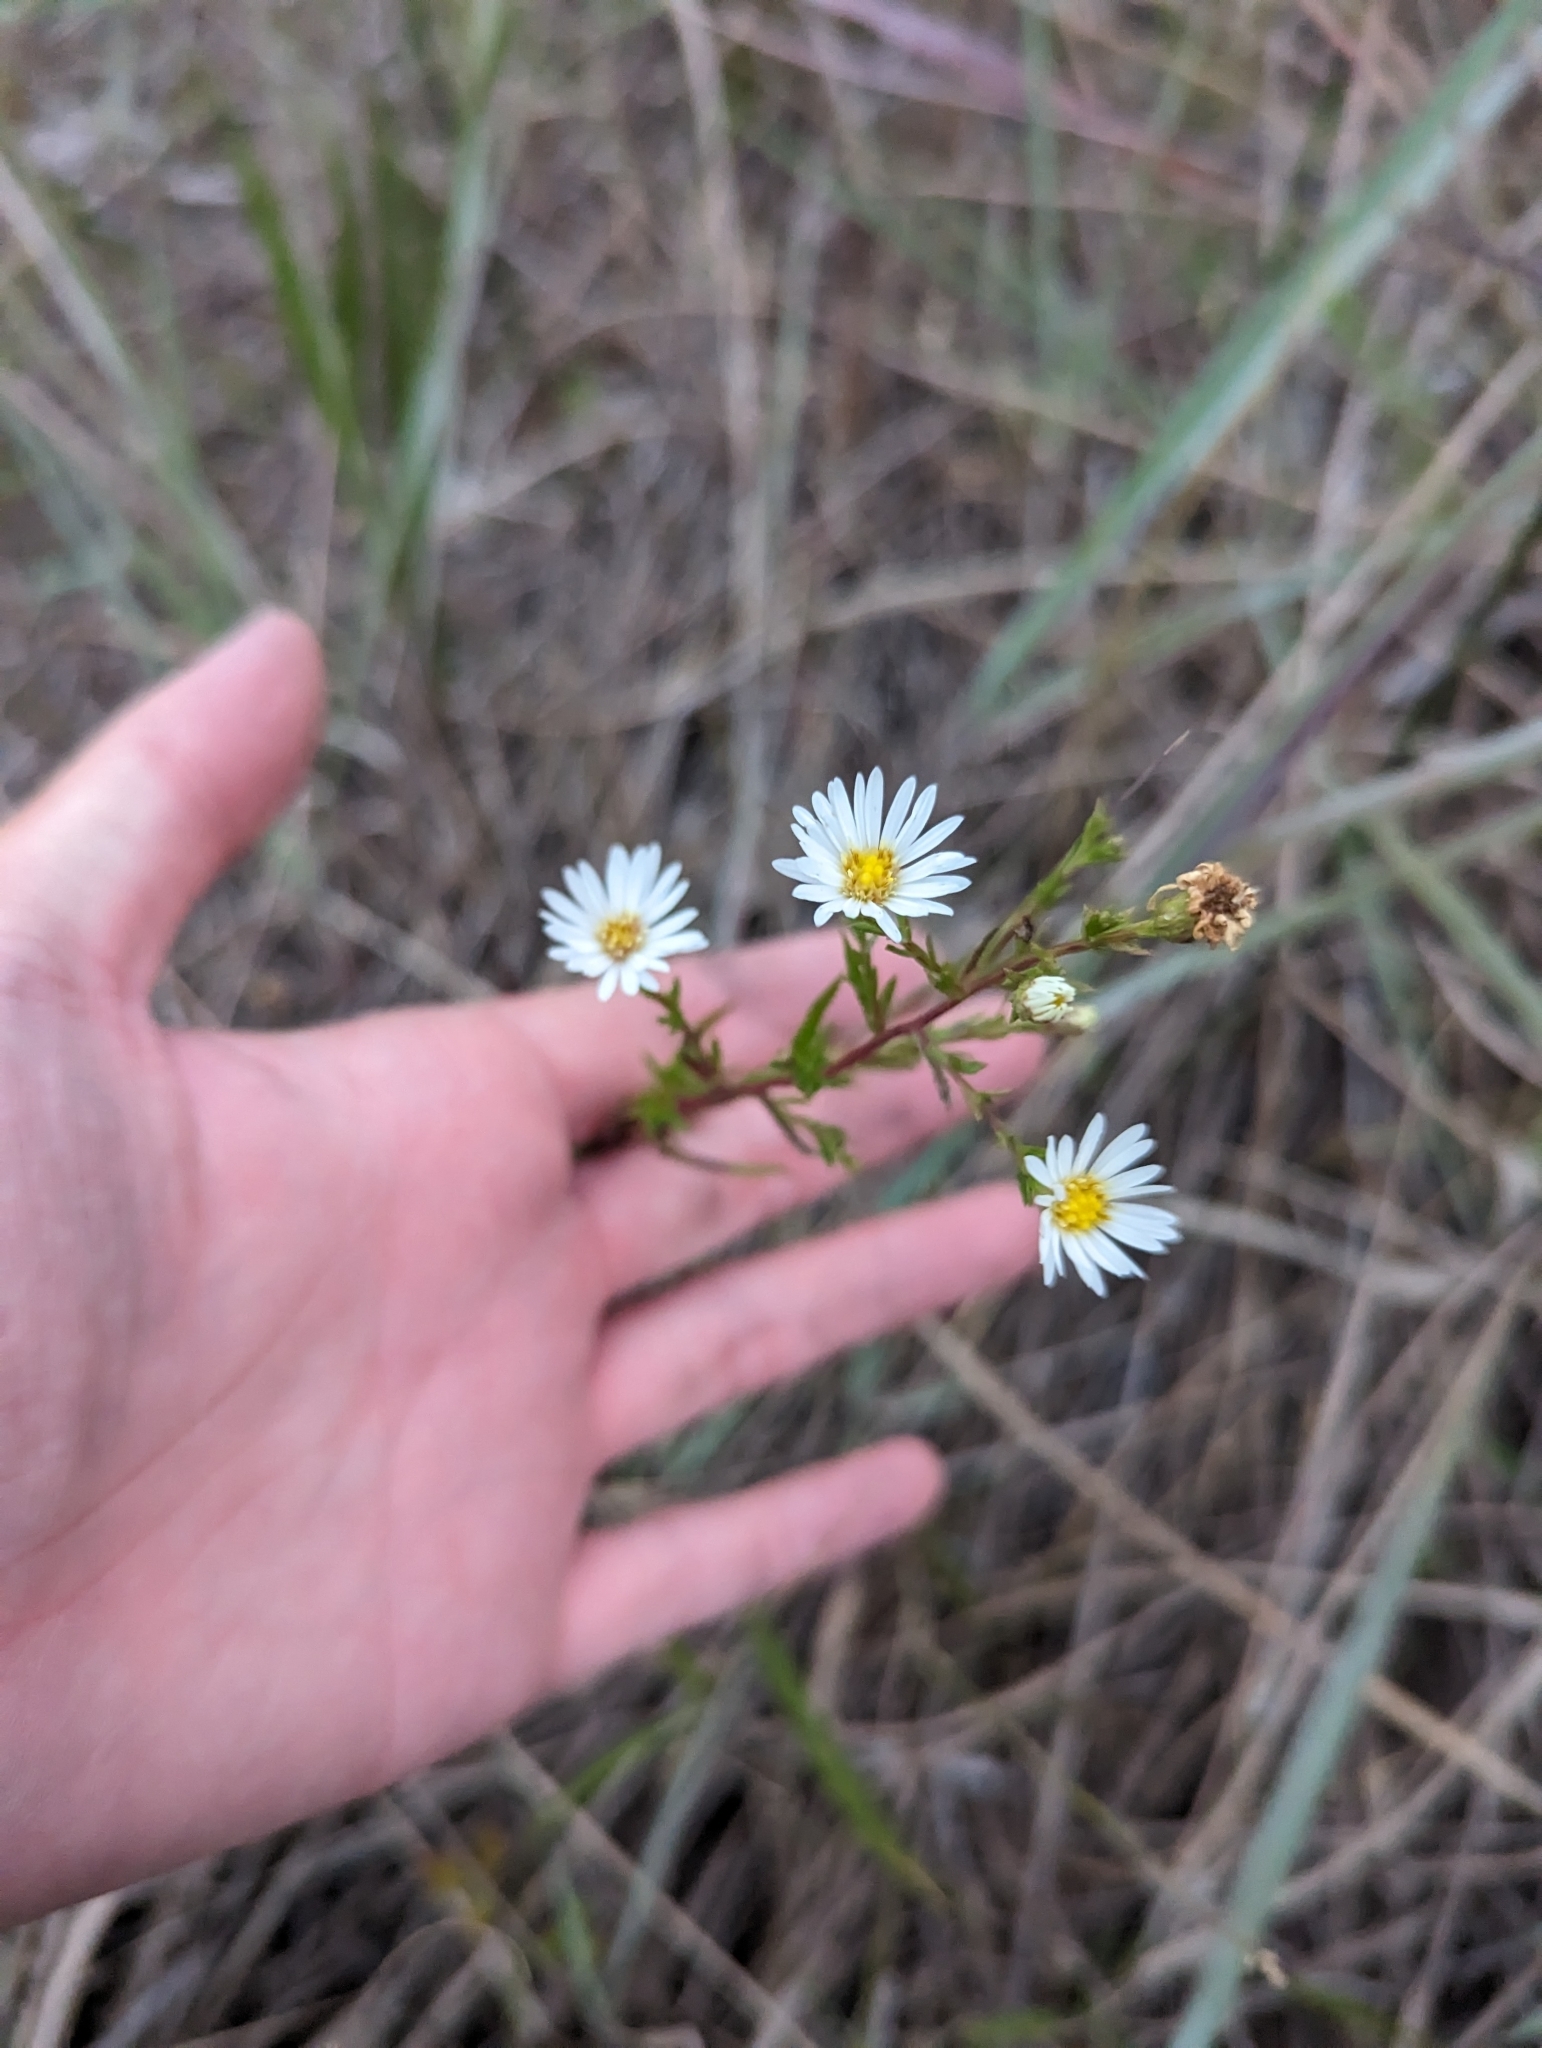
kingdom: Plantae
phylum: Tracheophyta
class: Magnoliopsida
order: Asterales
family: Asteraceae
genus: Symphyotrichum
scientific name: Symphyotrichum dumosum
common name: Bushy aster
